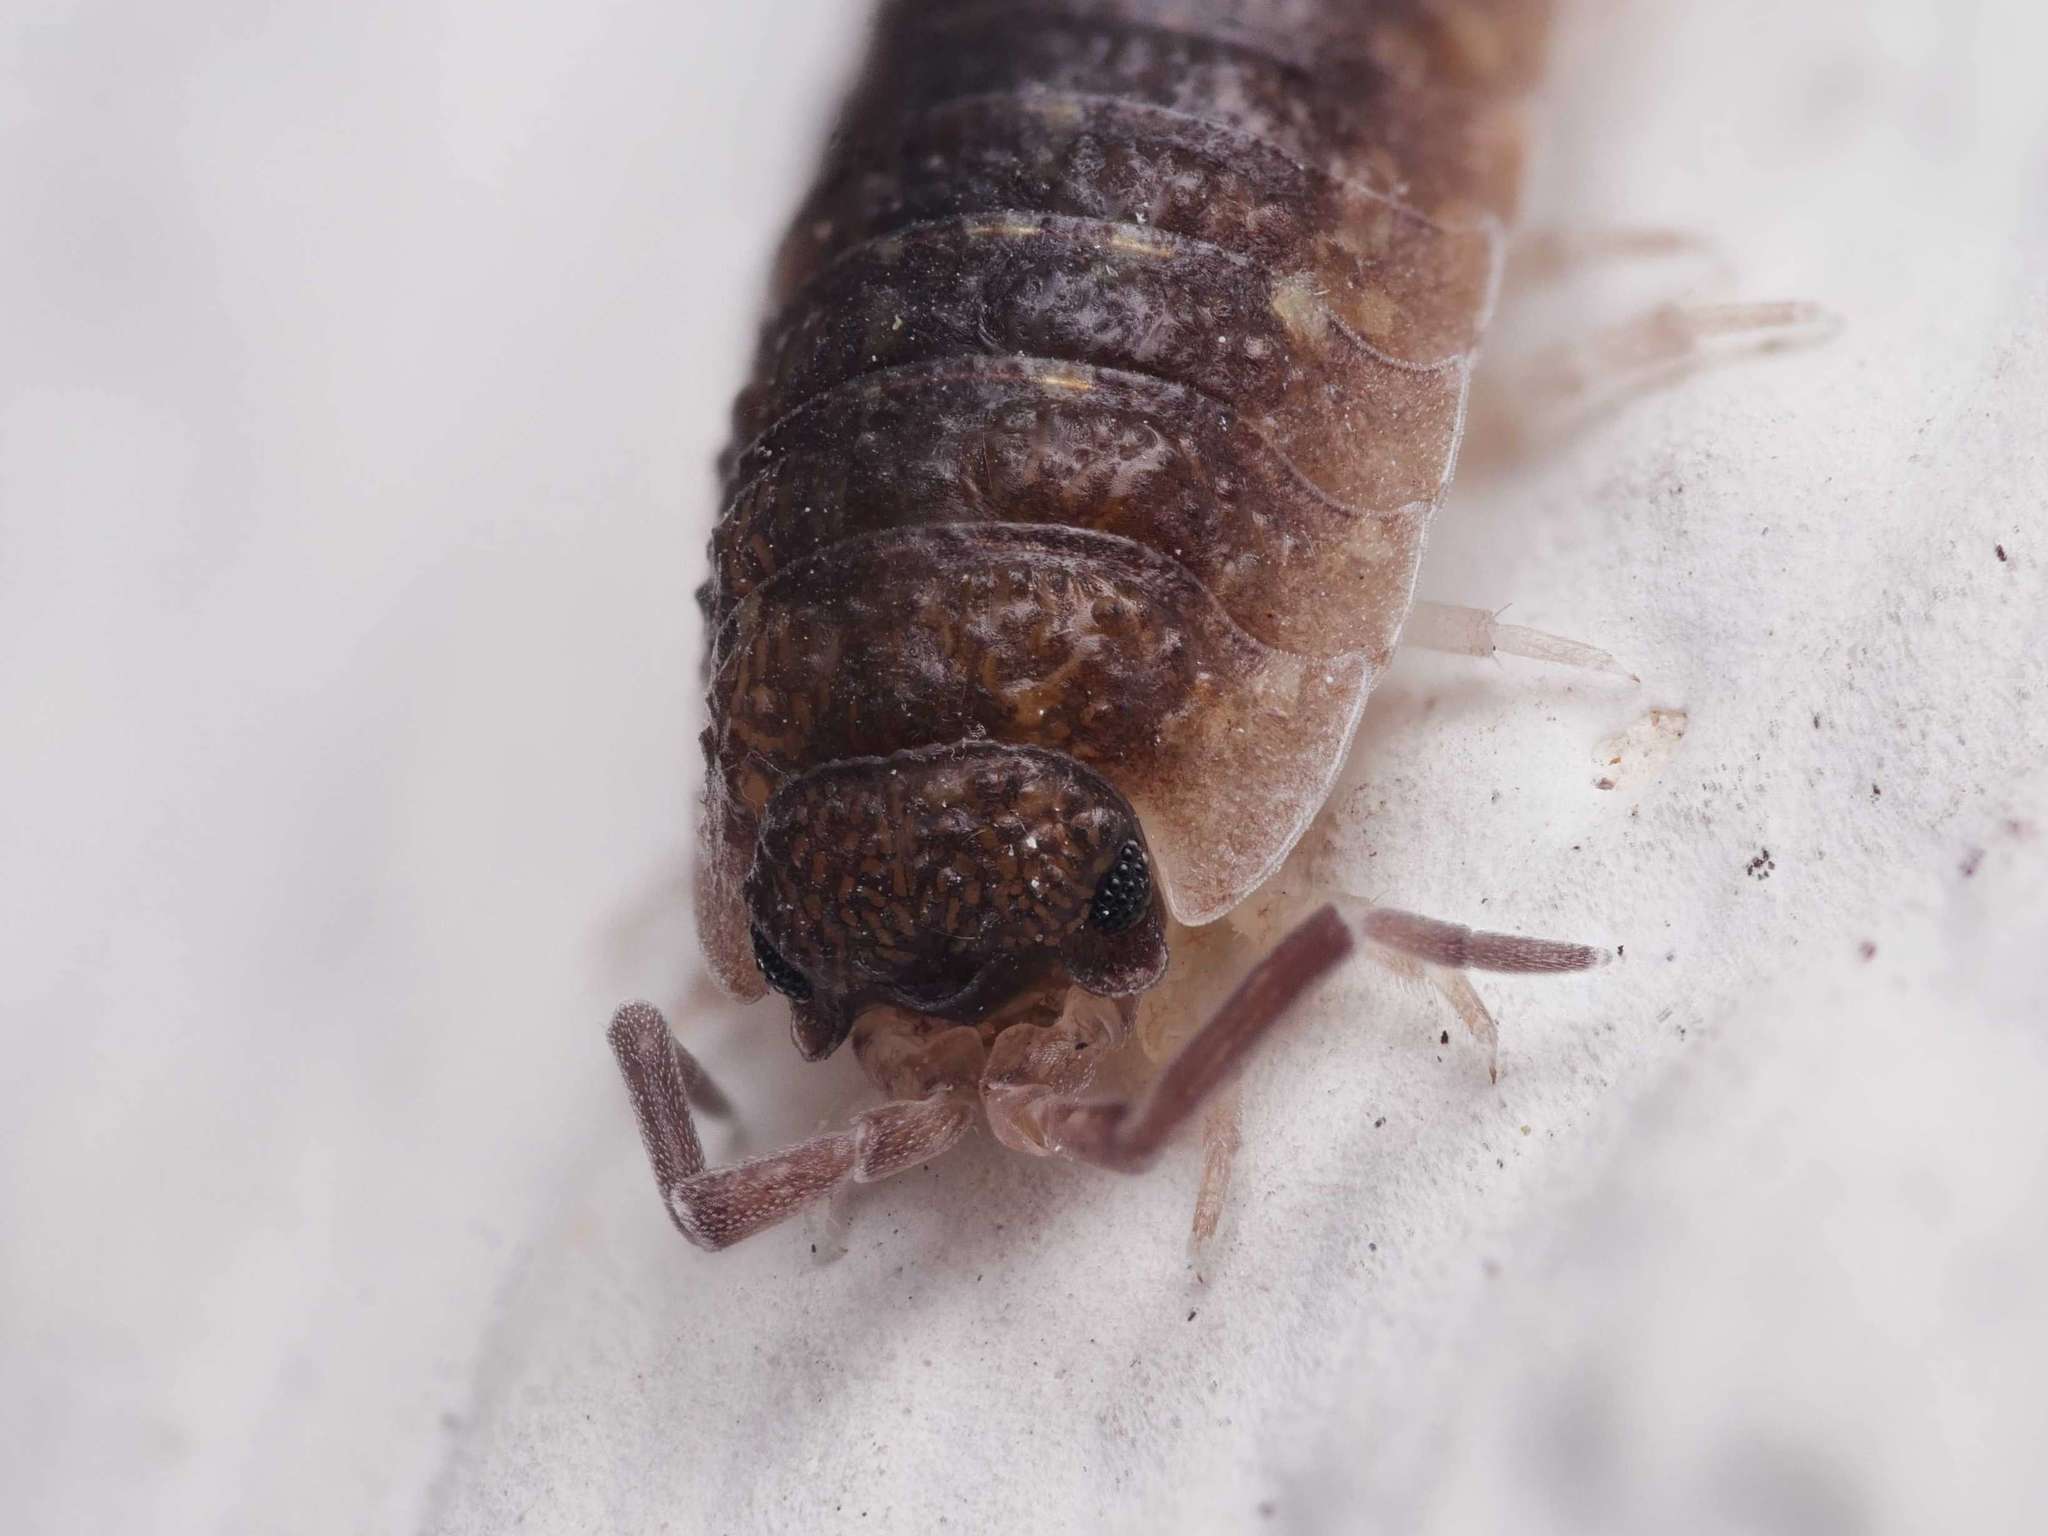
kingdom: Animalia
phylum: Arthropoda
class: Malacostraca
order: Isopoda
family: Porcellionidae
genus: Porcellio
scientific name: Porcellio scaber
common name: Common rough woodlouse
